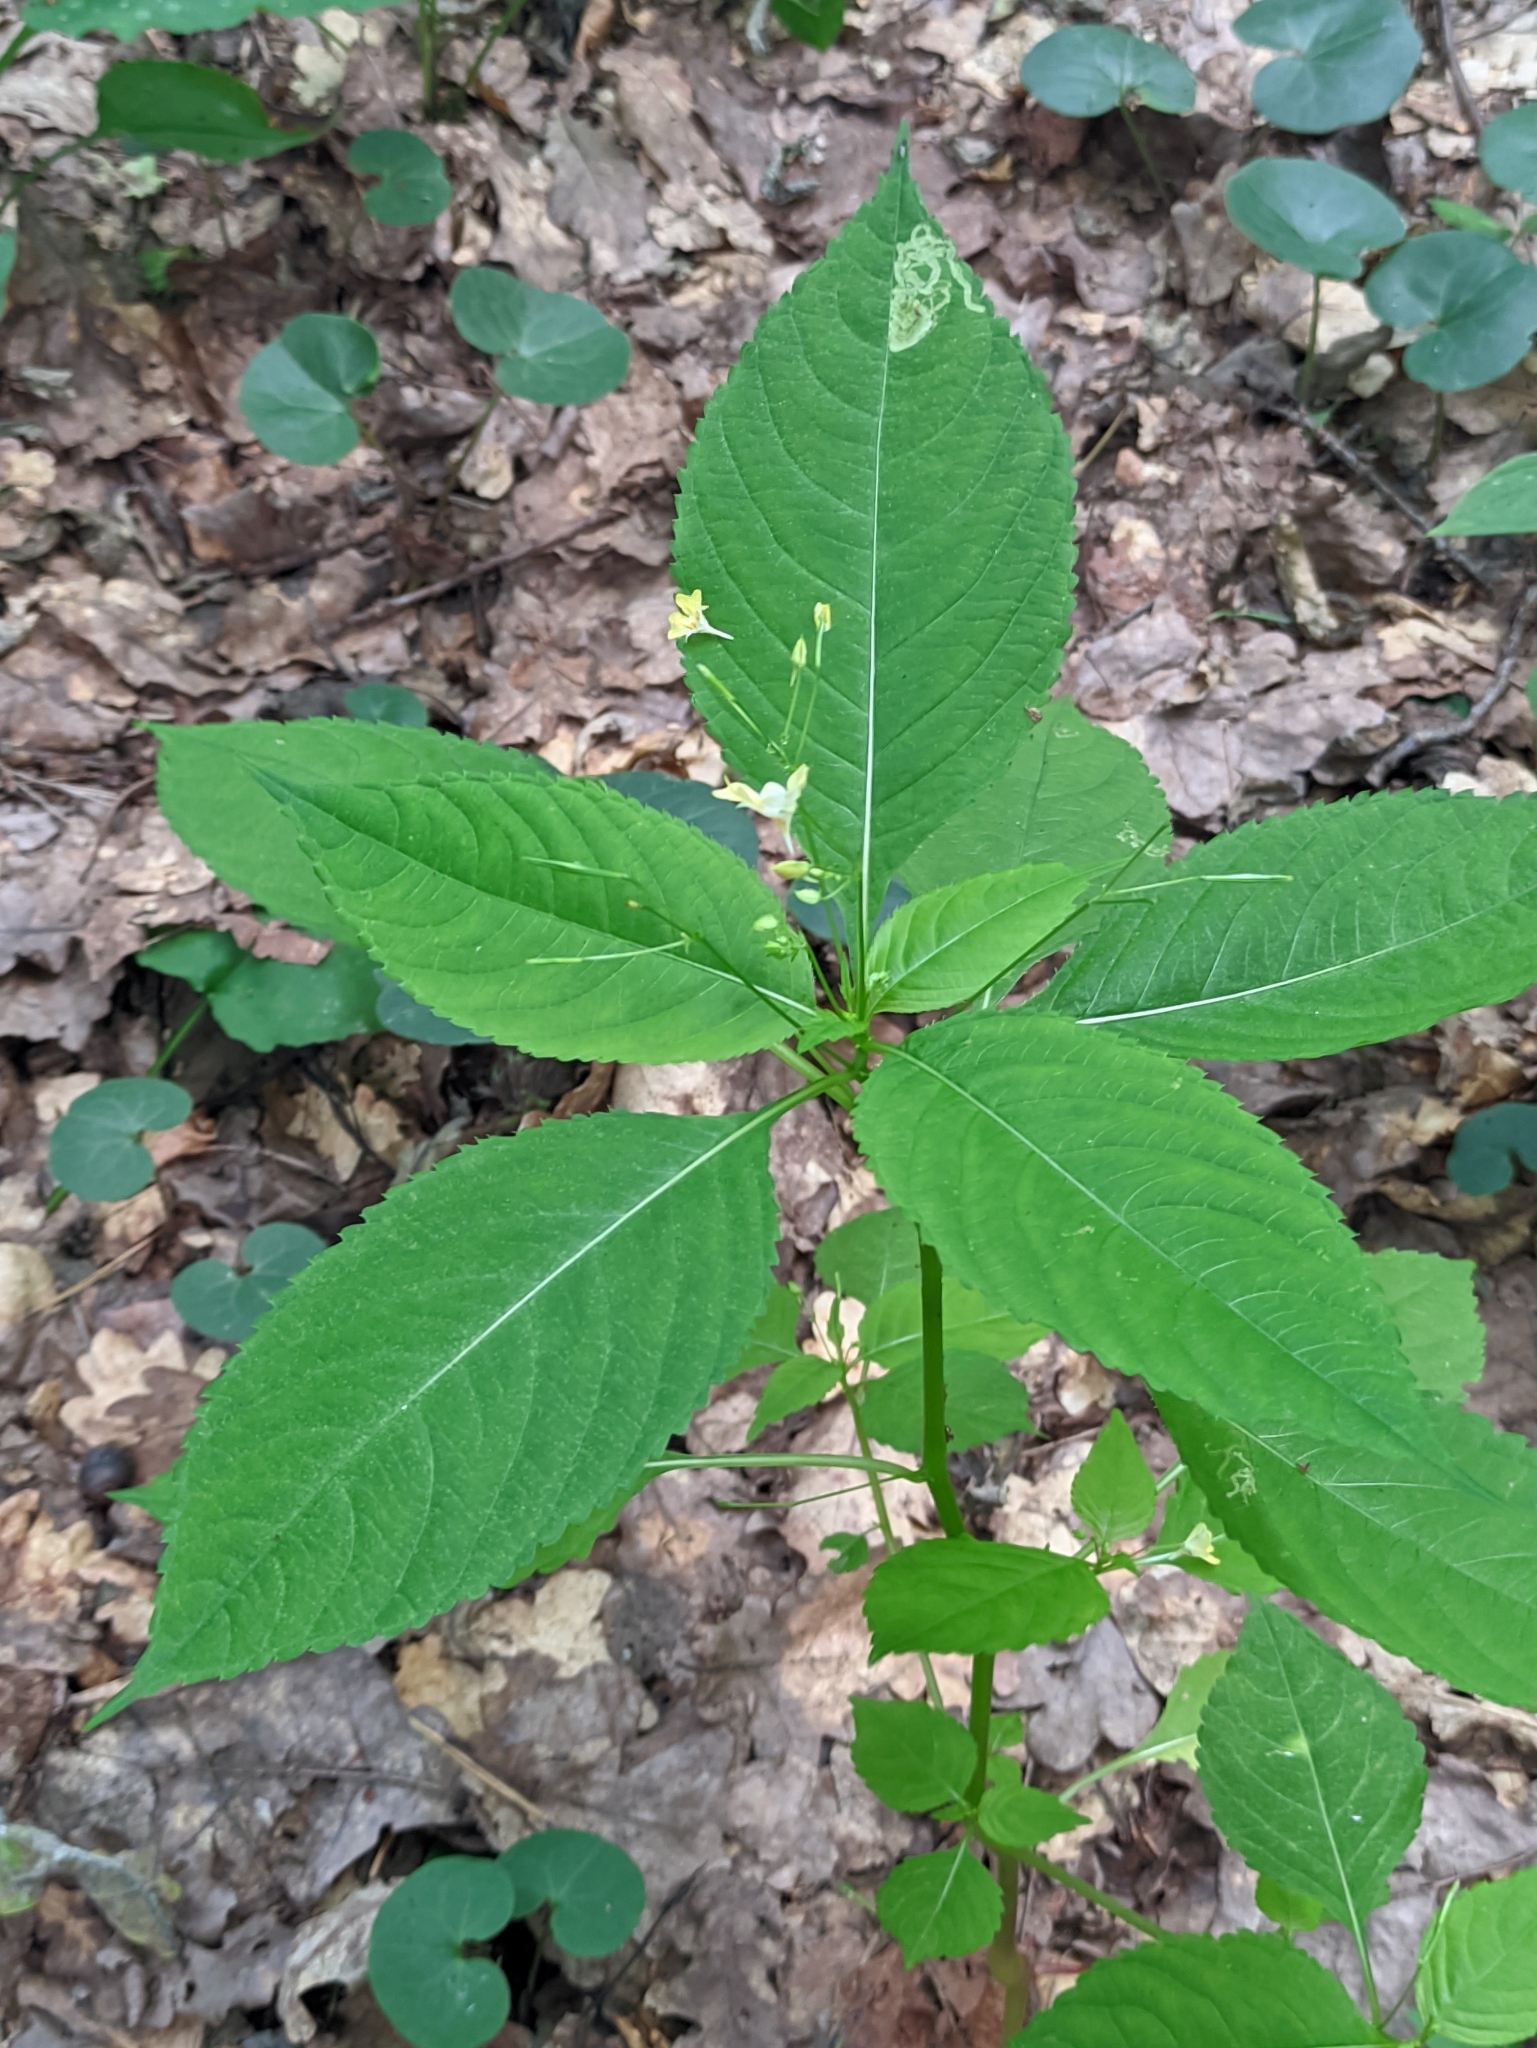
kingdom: Plantae
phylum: Tracheophyta
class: Magnoliopsida
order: Ericales
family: Balsaminaceae
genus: Impatiens
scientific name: Impatiens parviflora
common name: Small balsam
